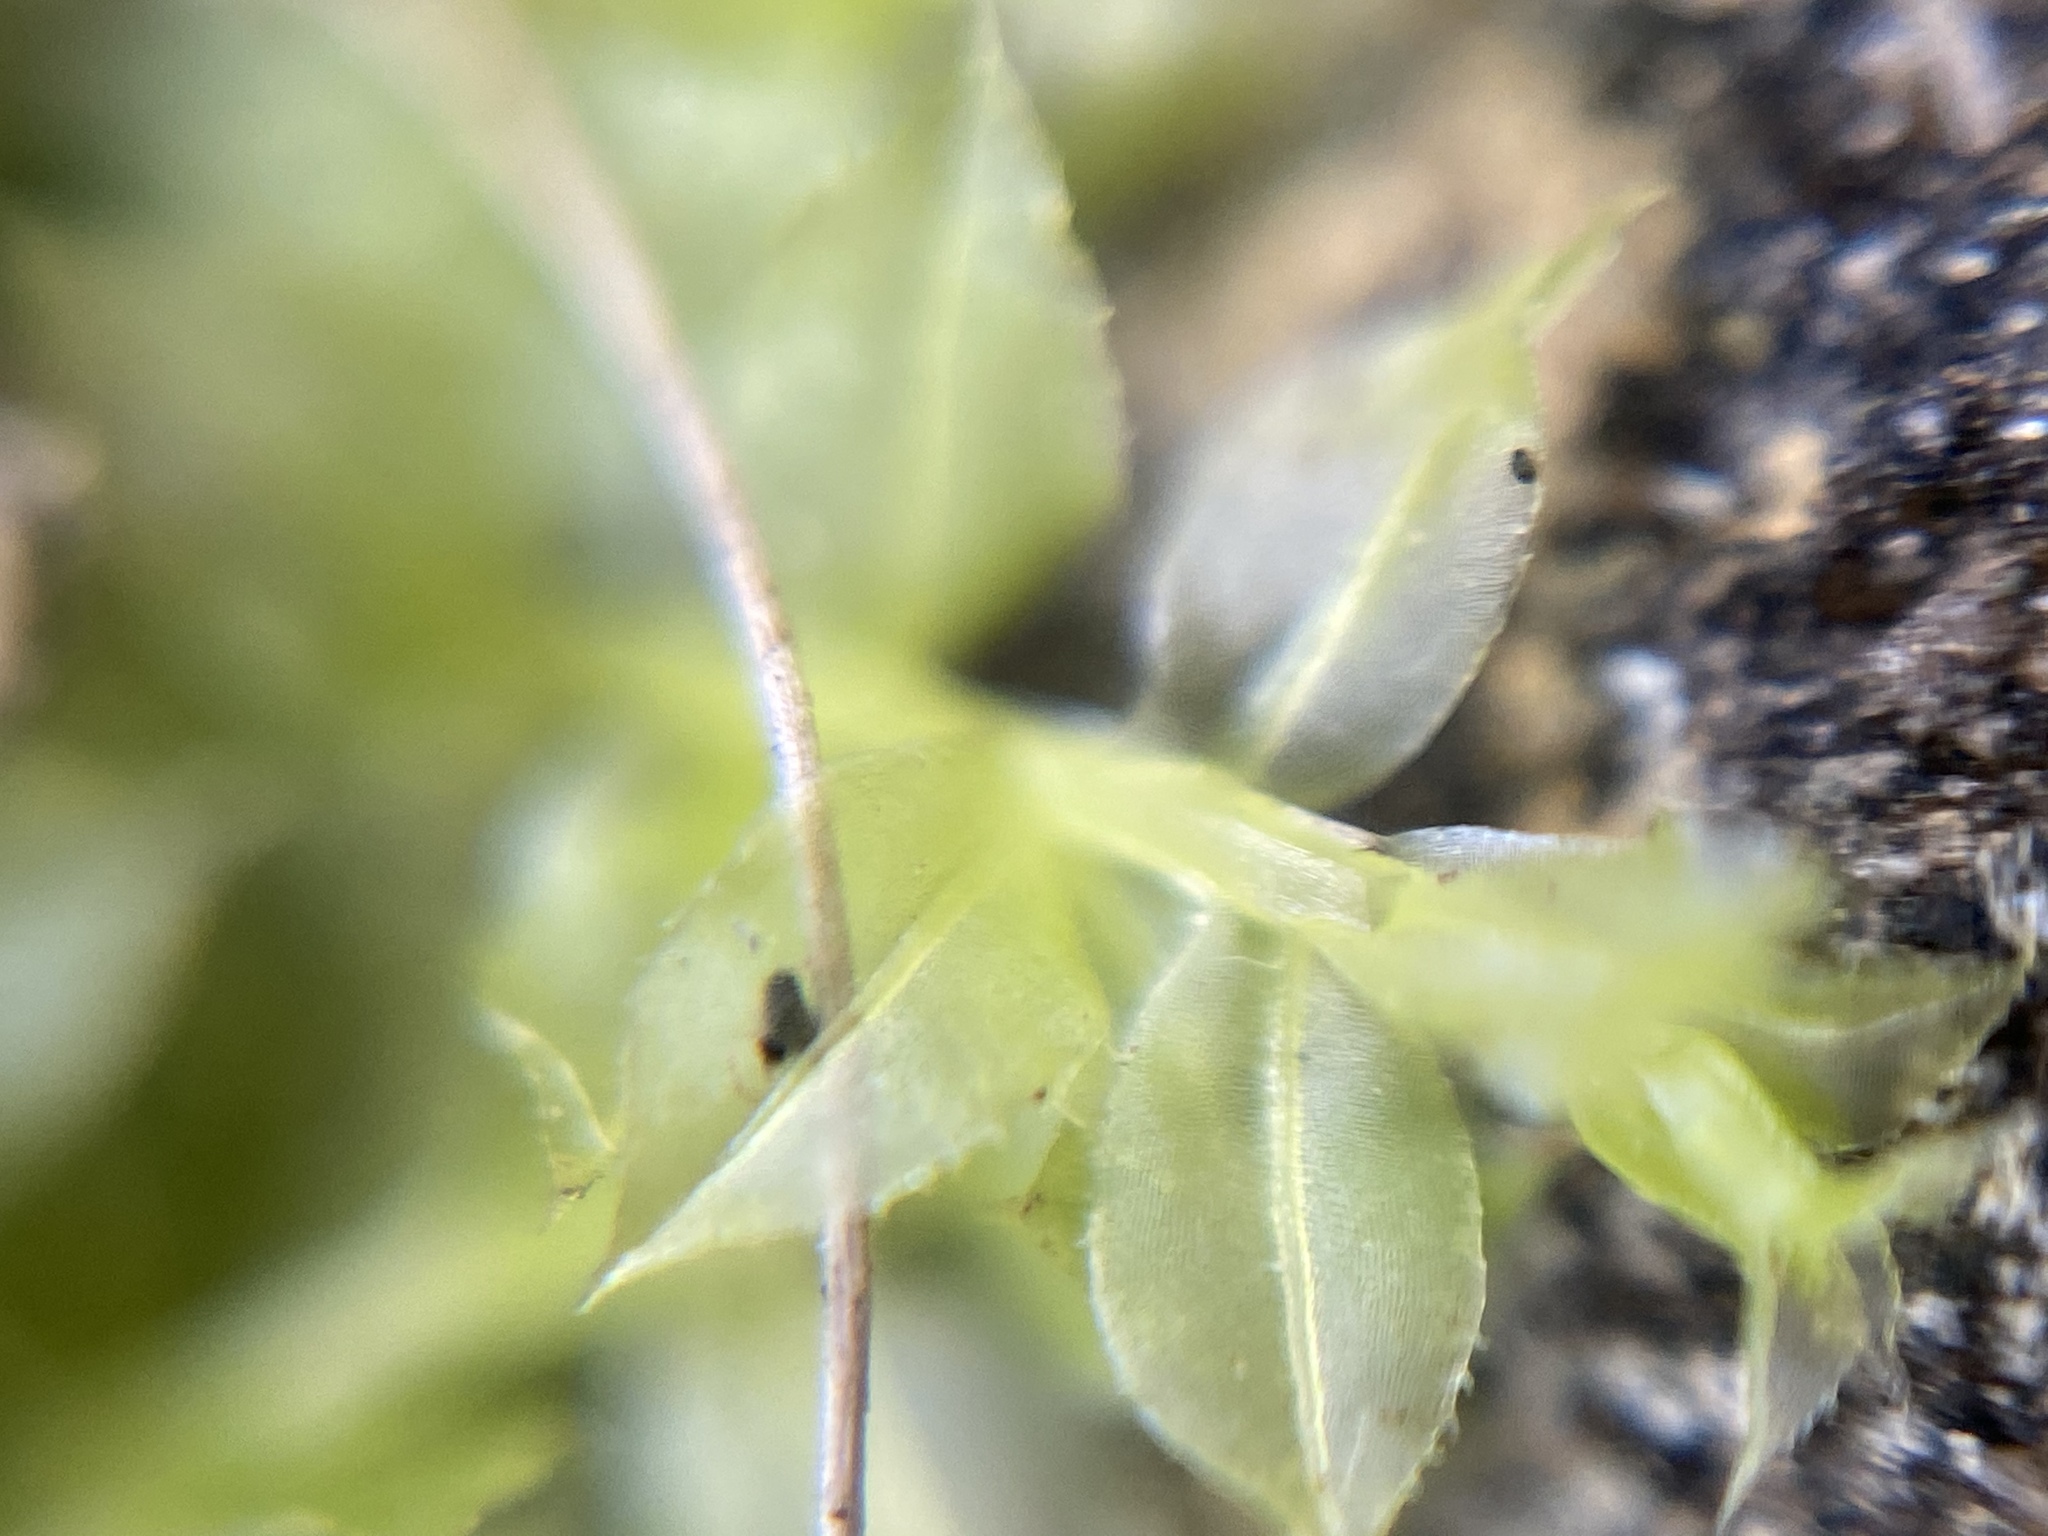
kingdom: Plantae
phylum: Bryophyta
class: Bryopsida
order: Bryales
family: Mniaceae
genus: Plagiomnium
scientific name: Plagiomnium cuspidatum
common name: Woodsy leafy moss
